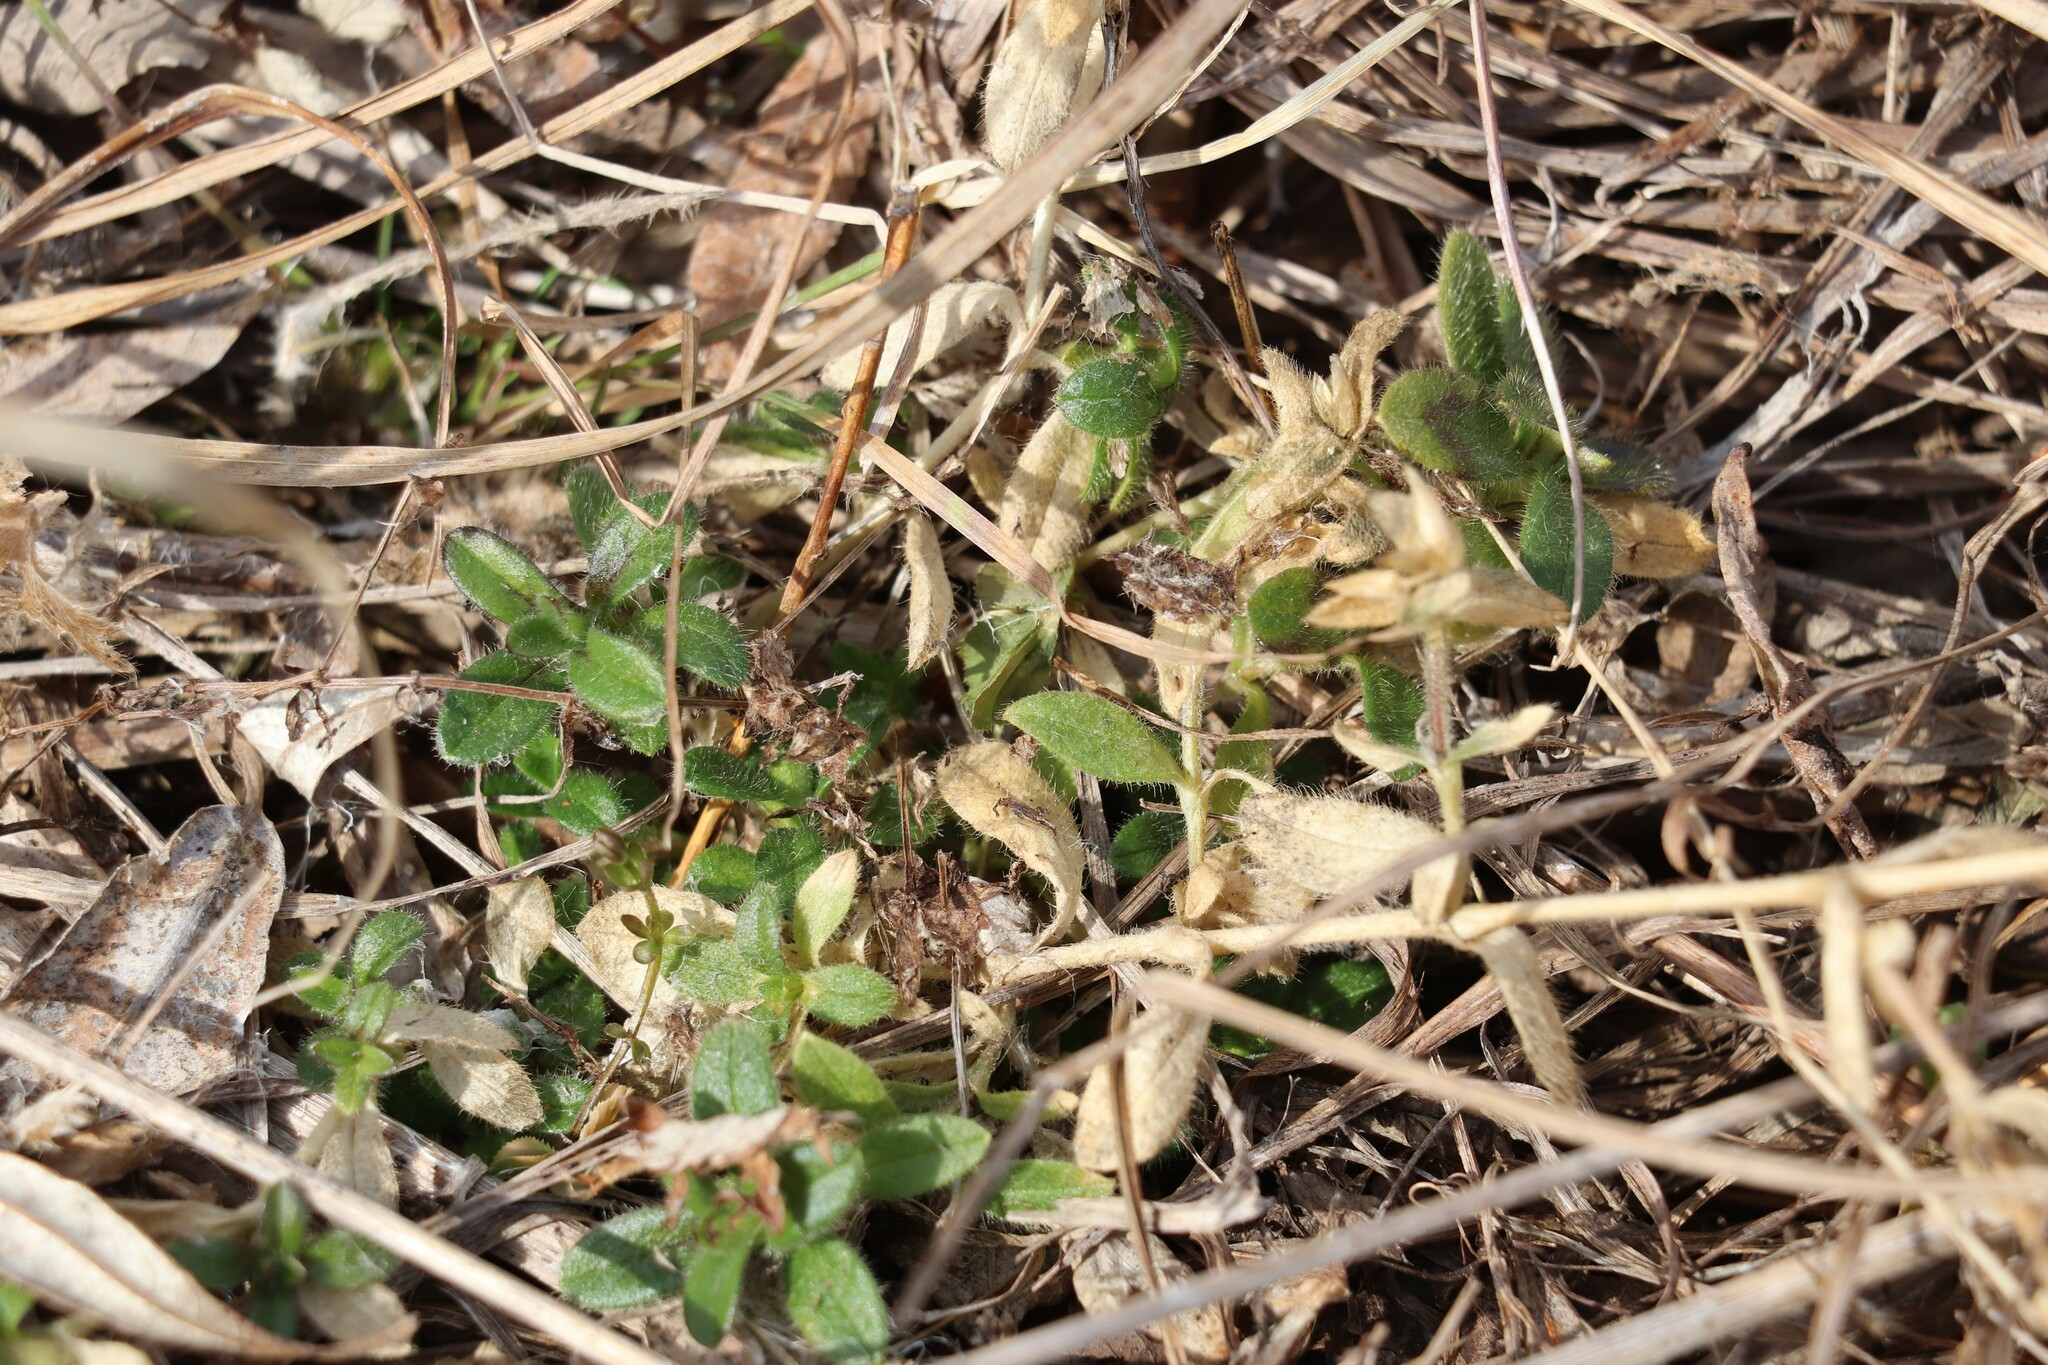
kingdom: Plantae
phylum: Tracheophyta
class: Magnoliopsida
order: Caryophyllales
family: Caryophyllaceae
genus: Cerastium
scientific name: Cerastium holosteoides
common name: Big chickweed
